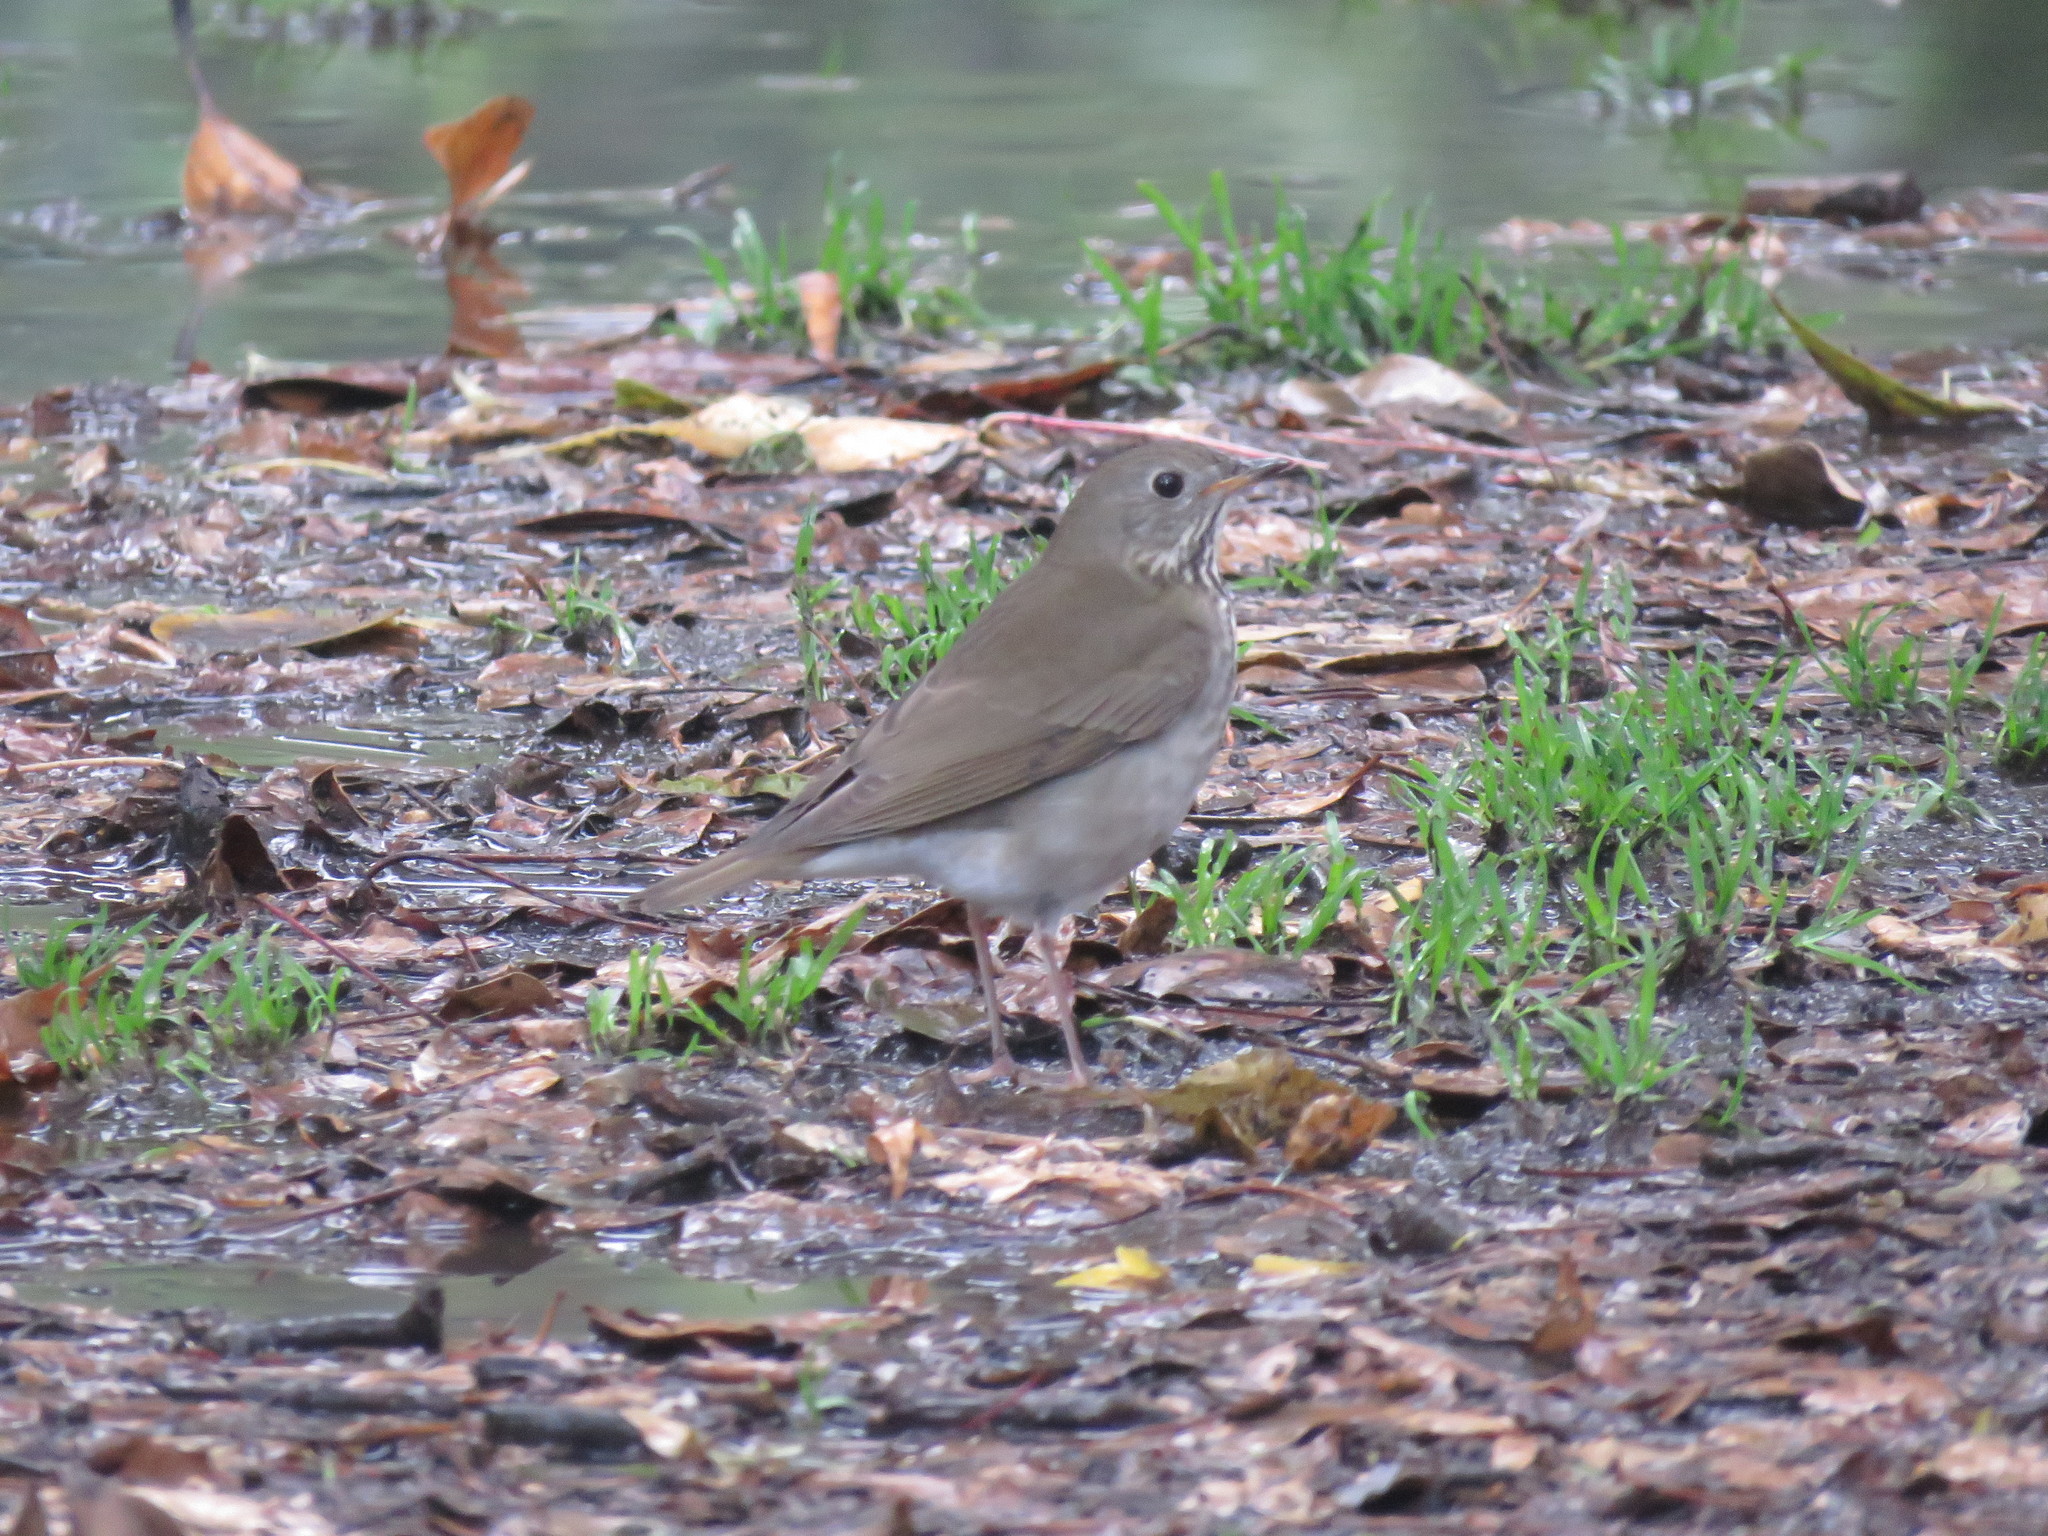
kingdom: Animalia
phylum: Chordata
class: Aves
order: Passeriformes
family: Turdidae
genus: Catharus
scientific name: Catharus minimus
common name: Grey-cheeked thrush
